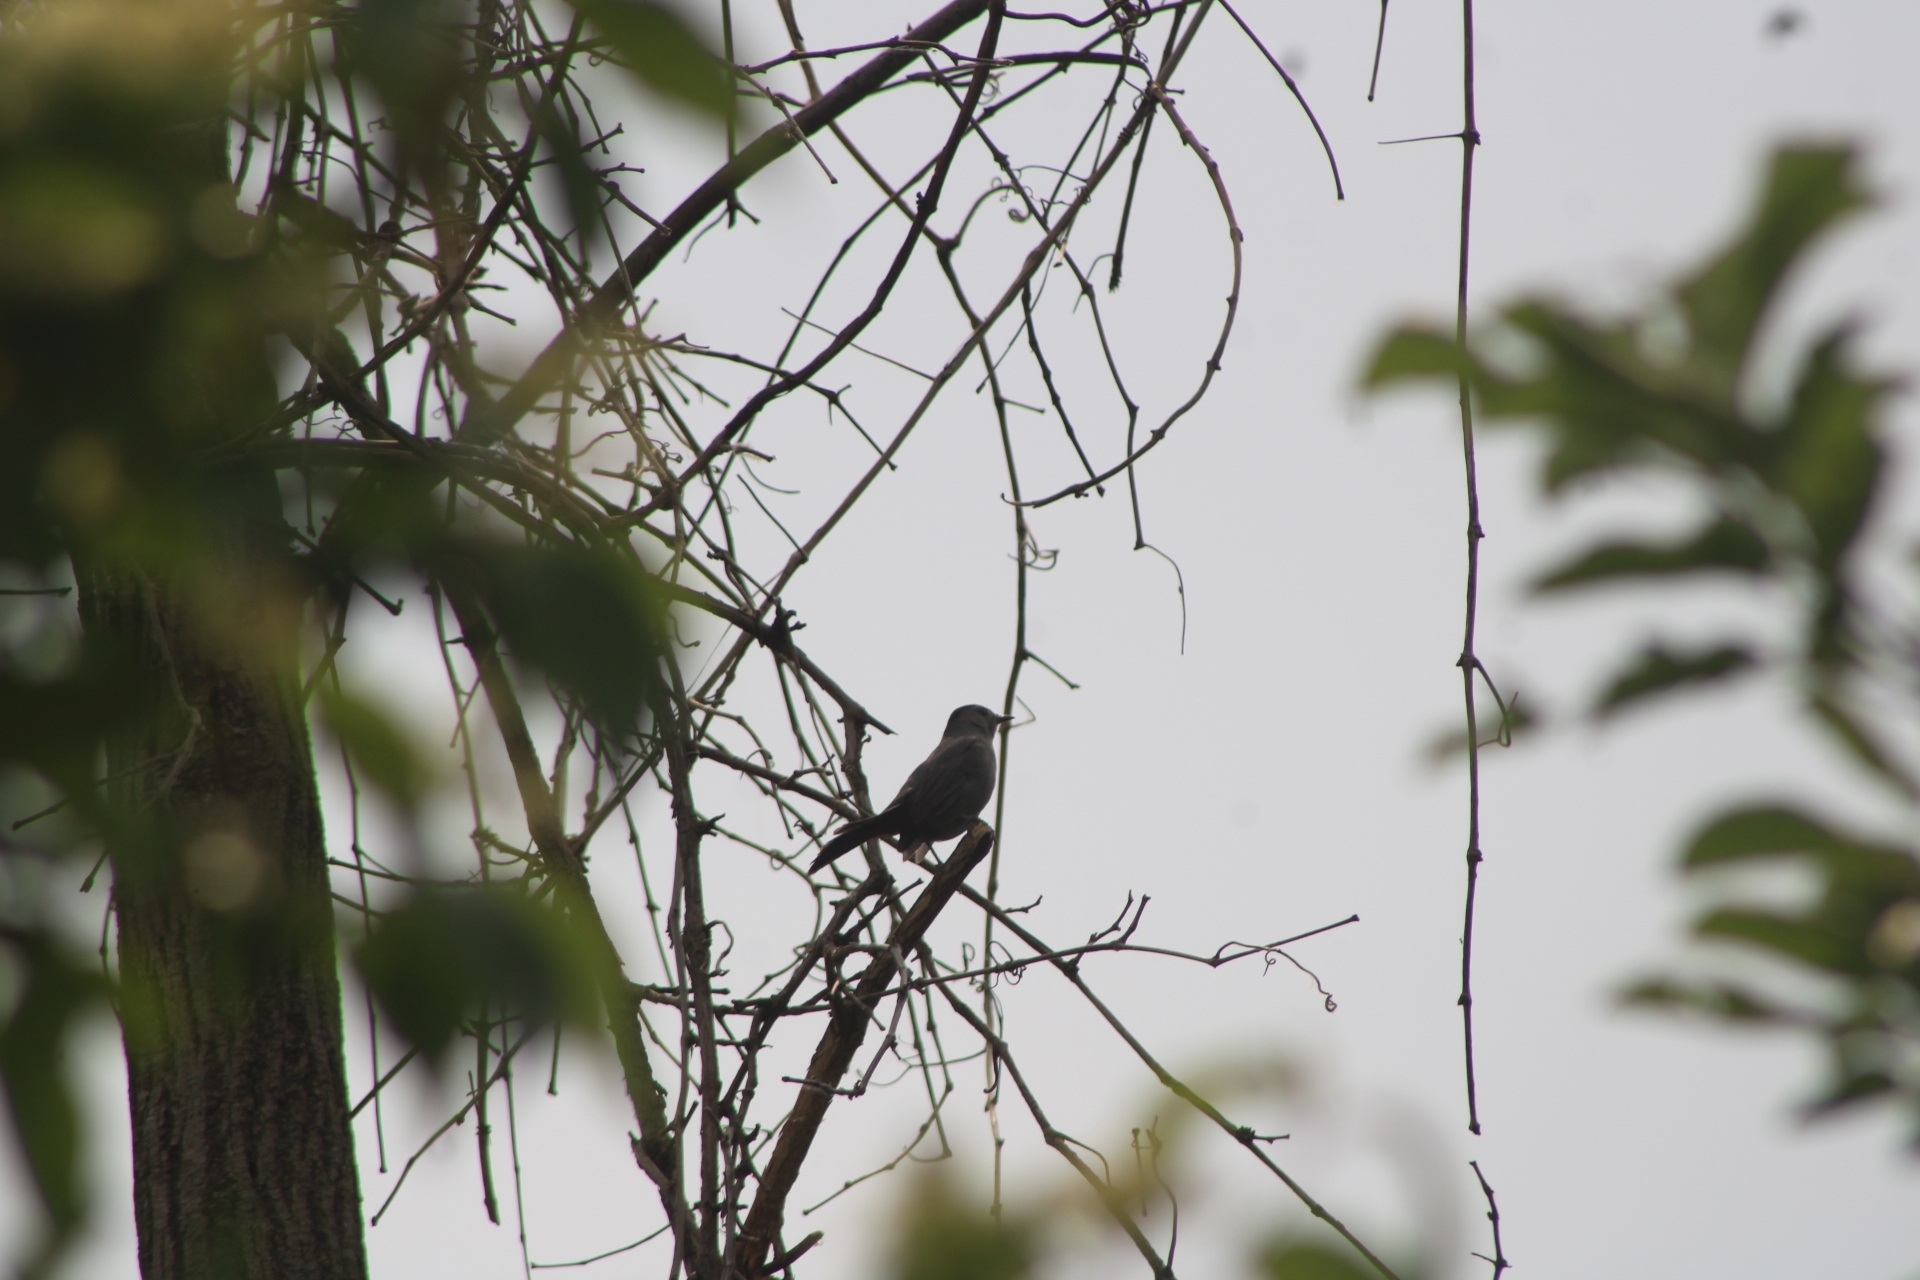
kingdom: Animalia
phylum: Chordata
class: Aves
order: Passeriformes
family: Mimidae
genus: Dumetella
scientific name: Dumetella carolinensis
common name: Gray catbird
